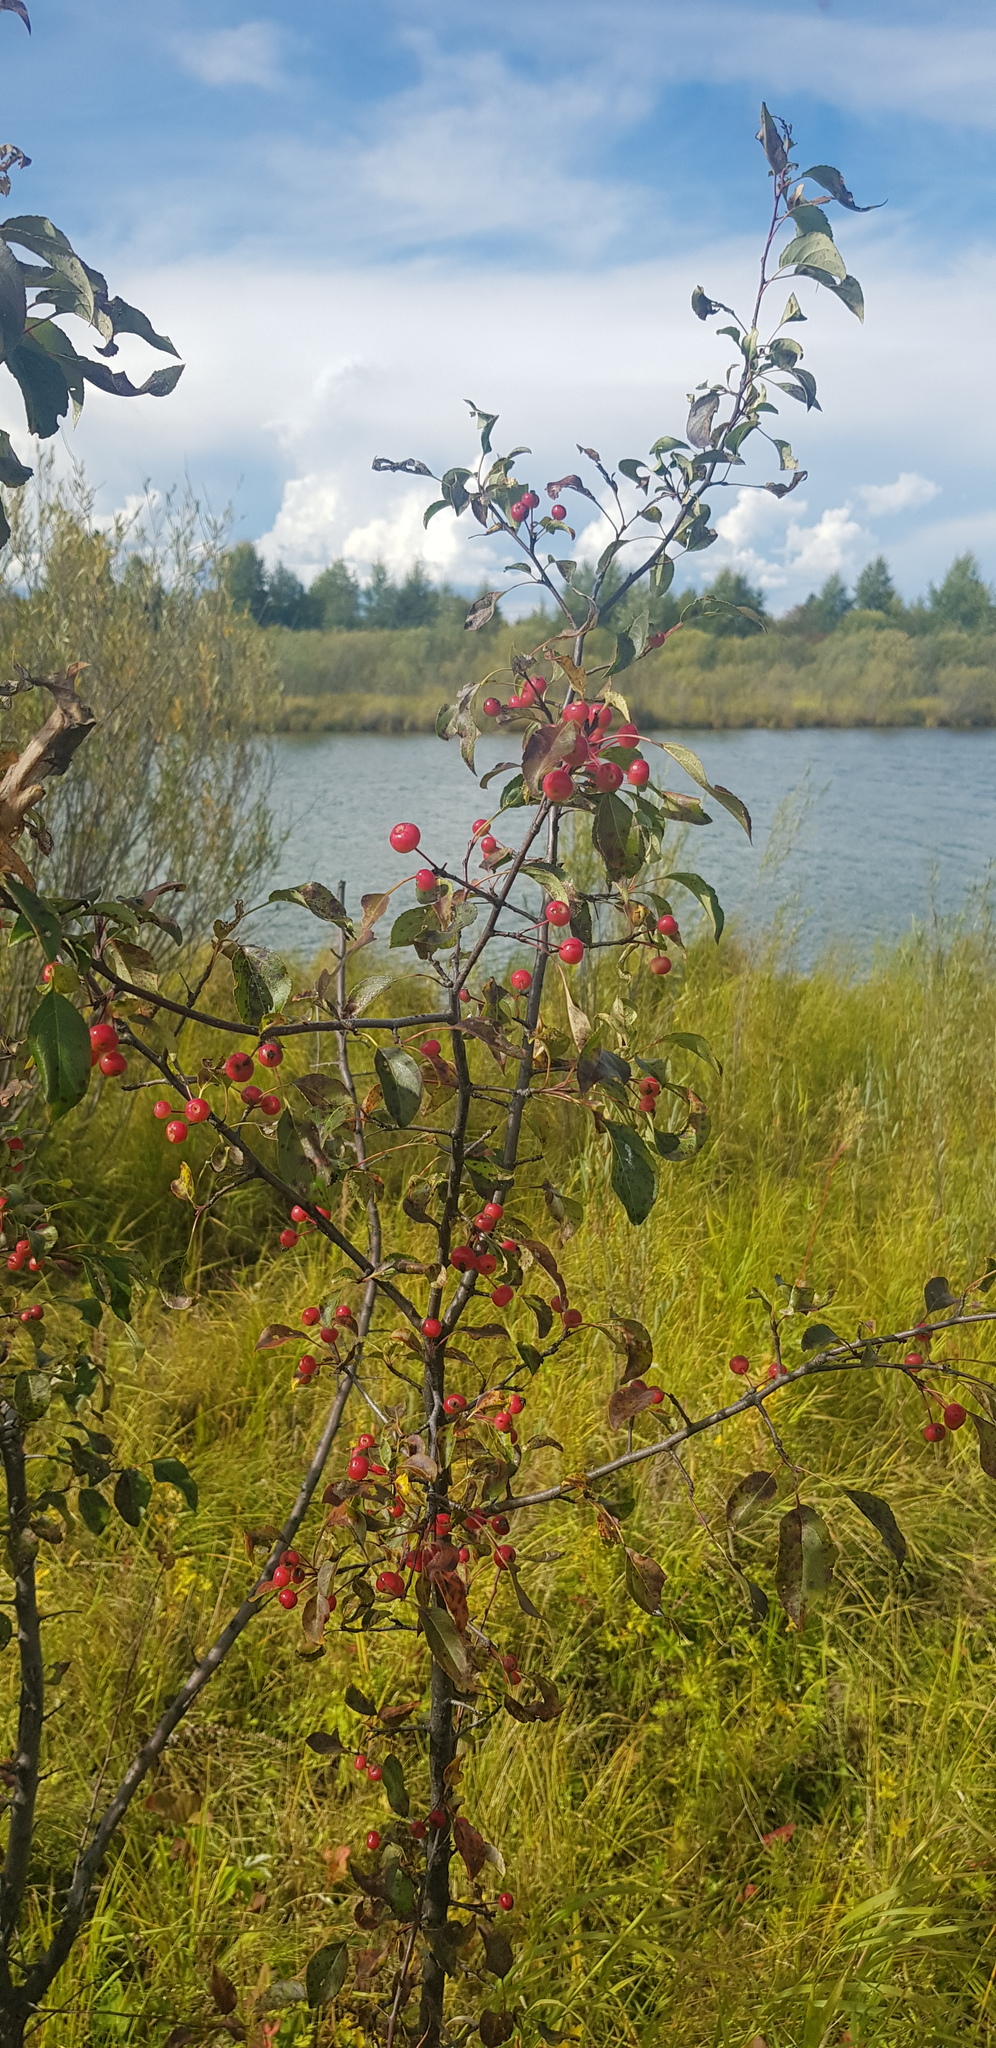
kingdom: Plantae
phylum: Tracheophyta
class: Magnoliopsida
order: Rosales
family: Rosaceae
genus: Malus
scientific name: Malus baccata
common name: Siberian crab
